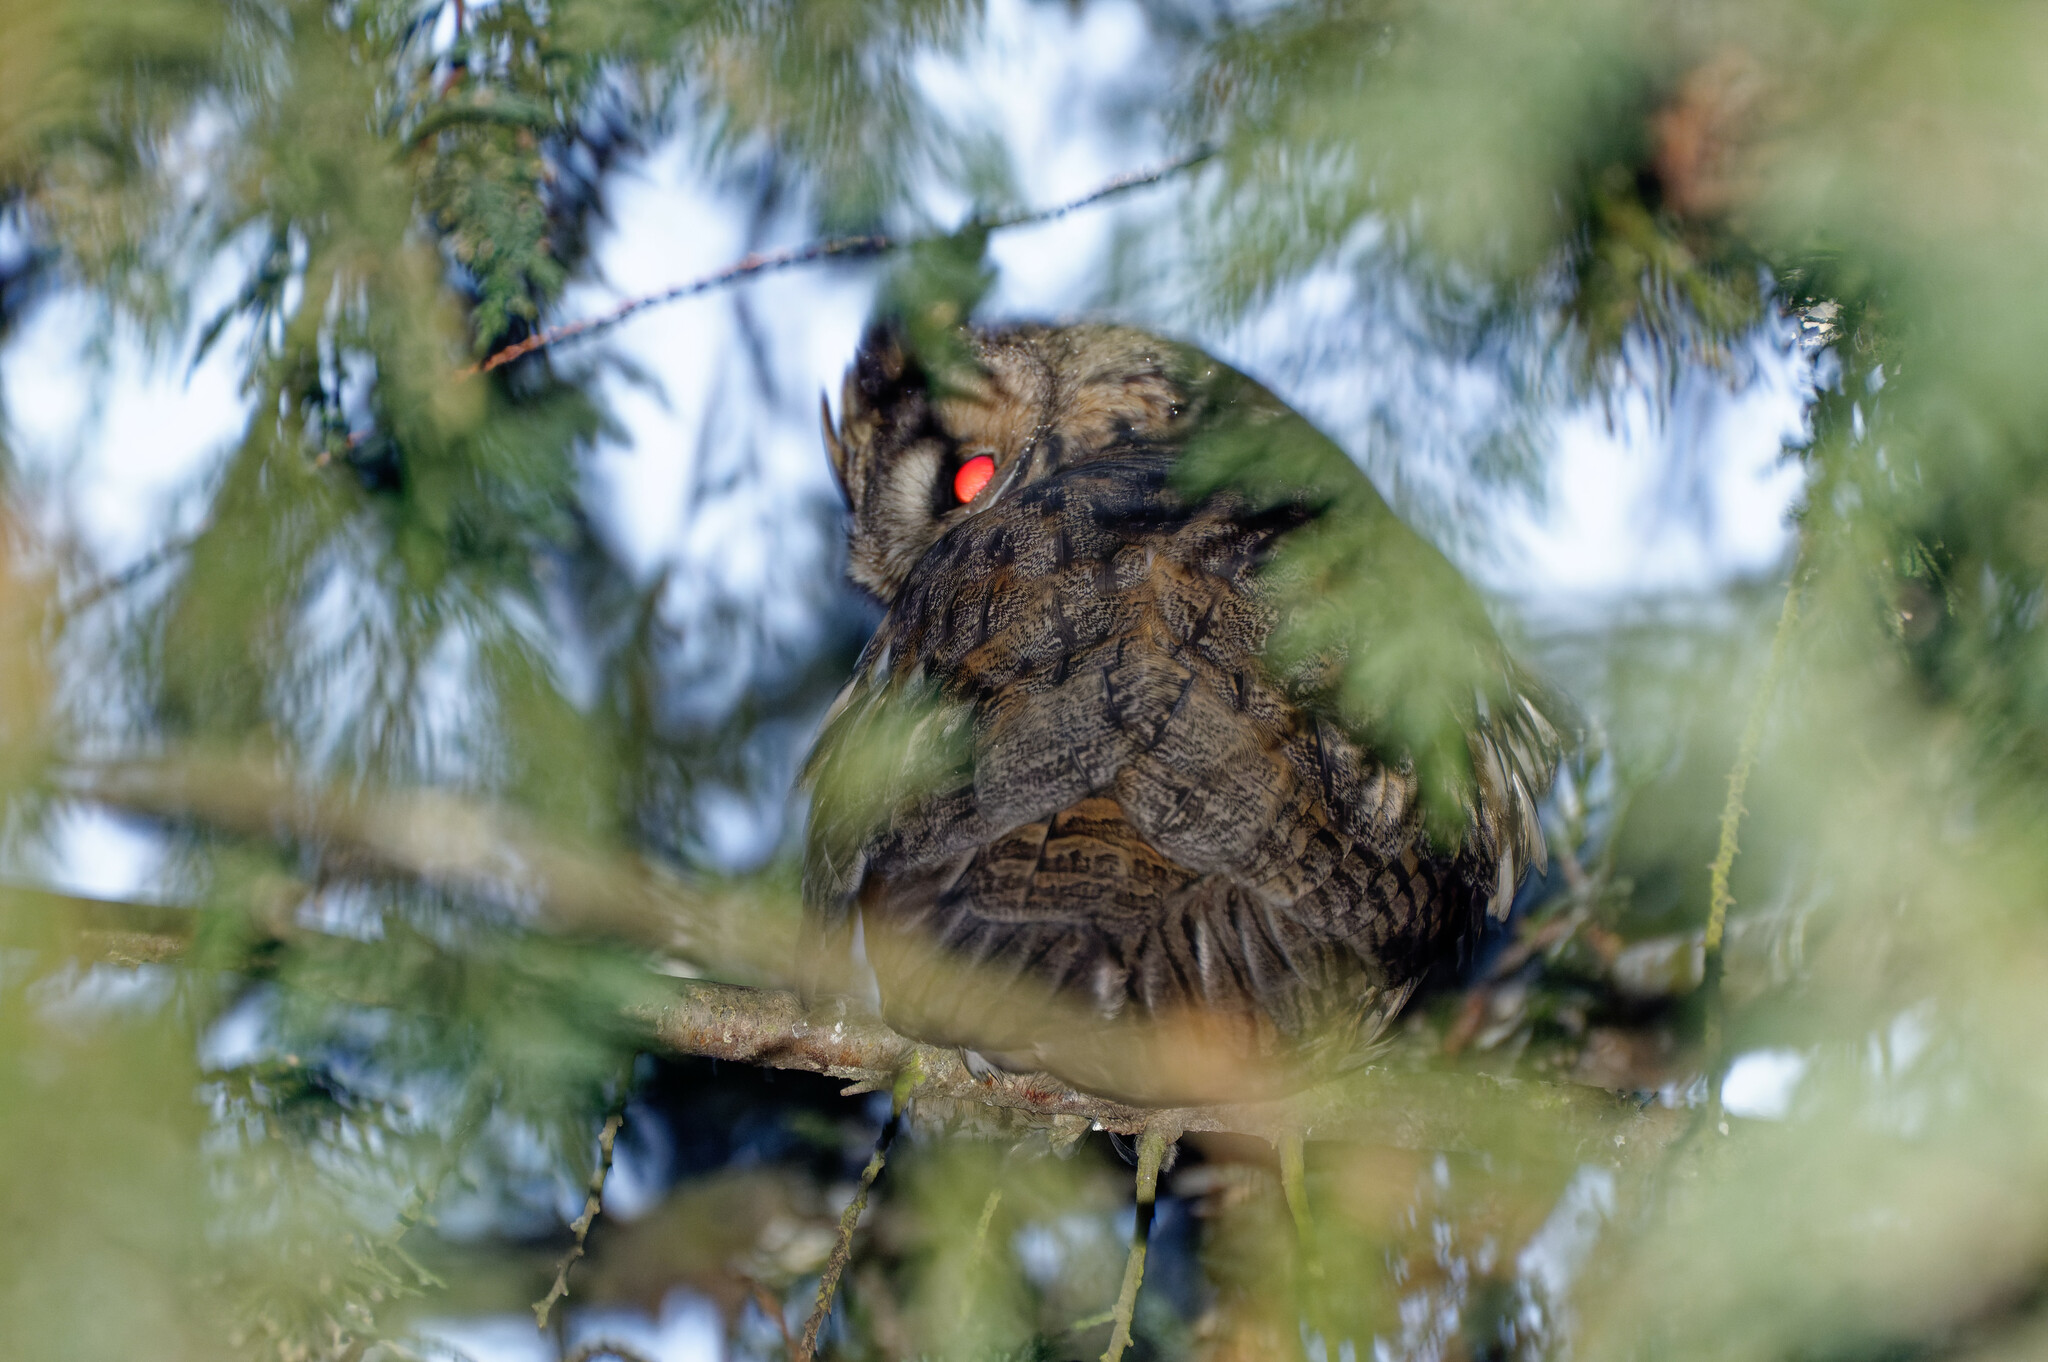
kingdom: Animalia
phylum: Chordata
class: Aves
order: Strigiformes
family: Strigidae
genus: Asio
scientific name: Asio otus
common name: Long-eared owl
